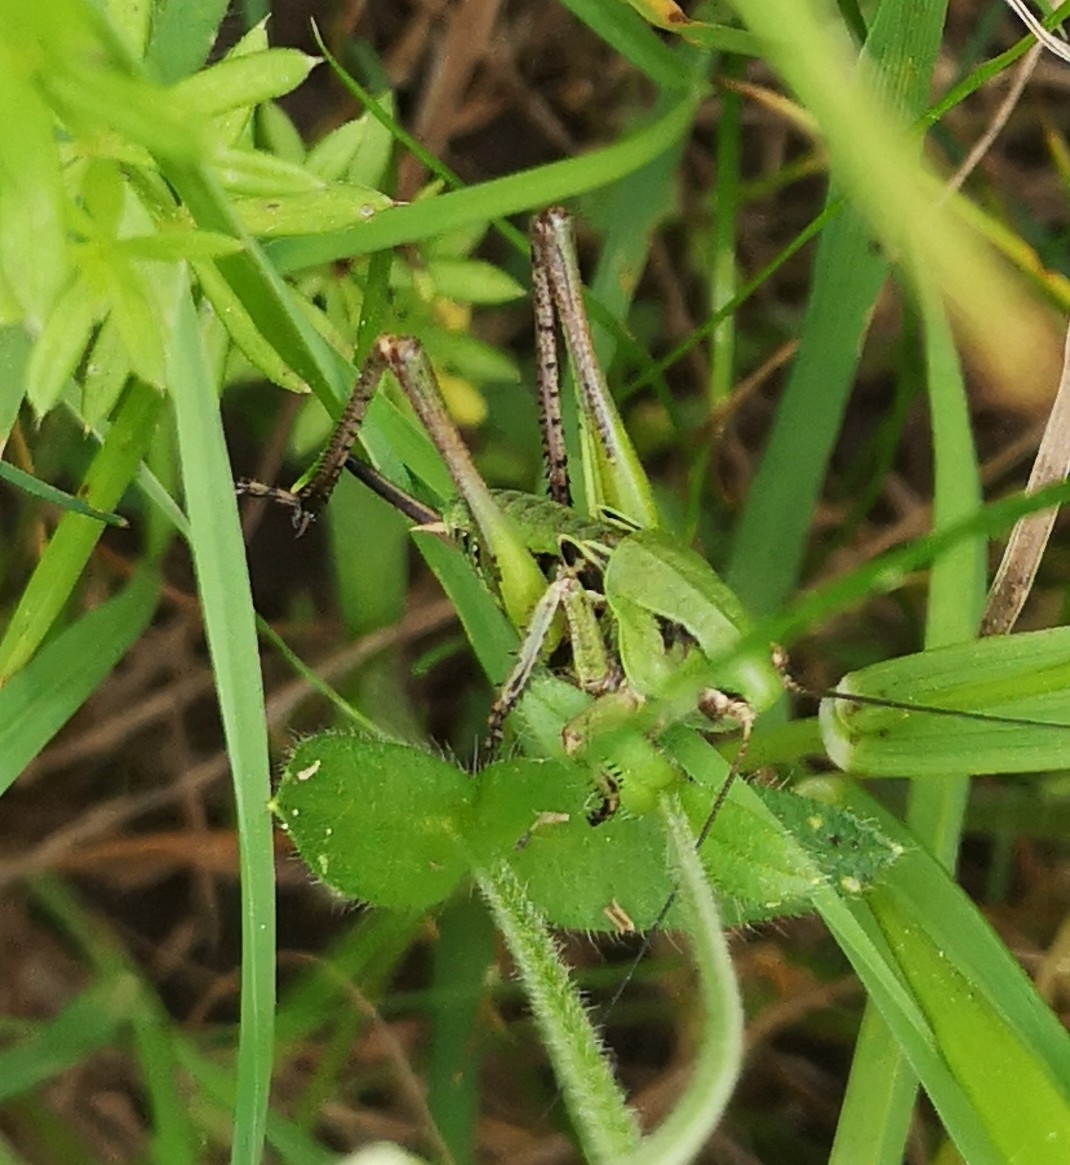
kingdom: Animalia
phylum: Arthropoda
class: Insecta
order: Orthoptera
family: Tettigoniidae
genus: Decticus
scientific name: Decticus verrucivorus
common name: Wart-biter
